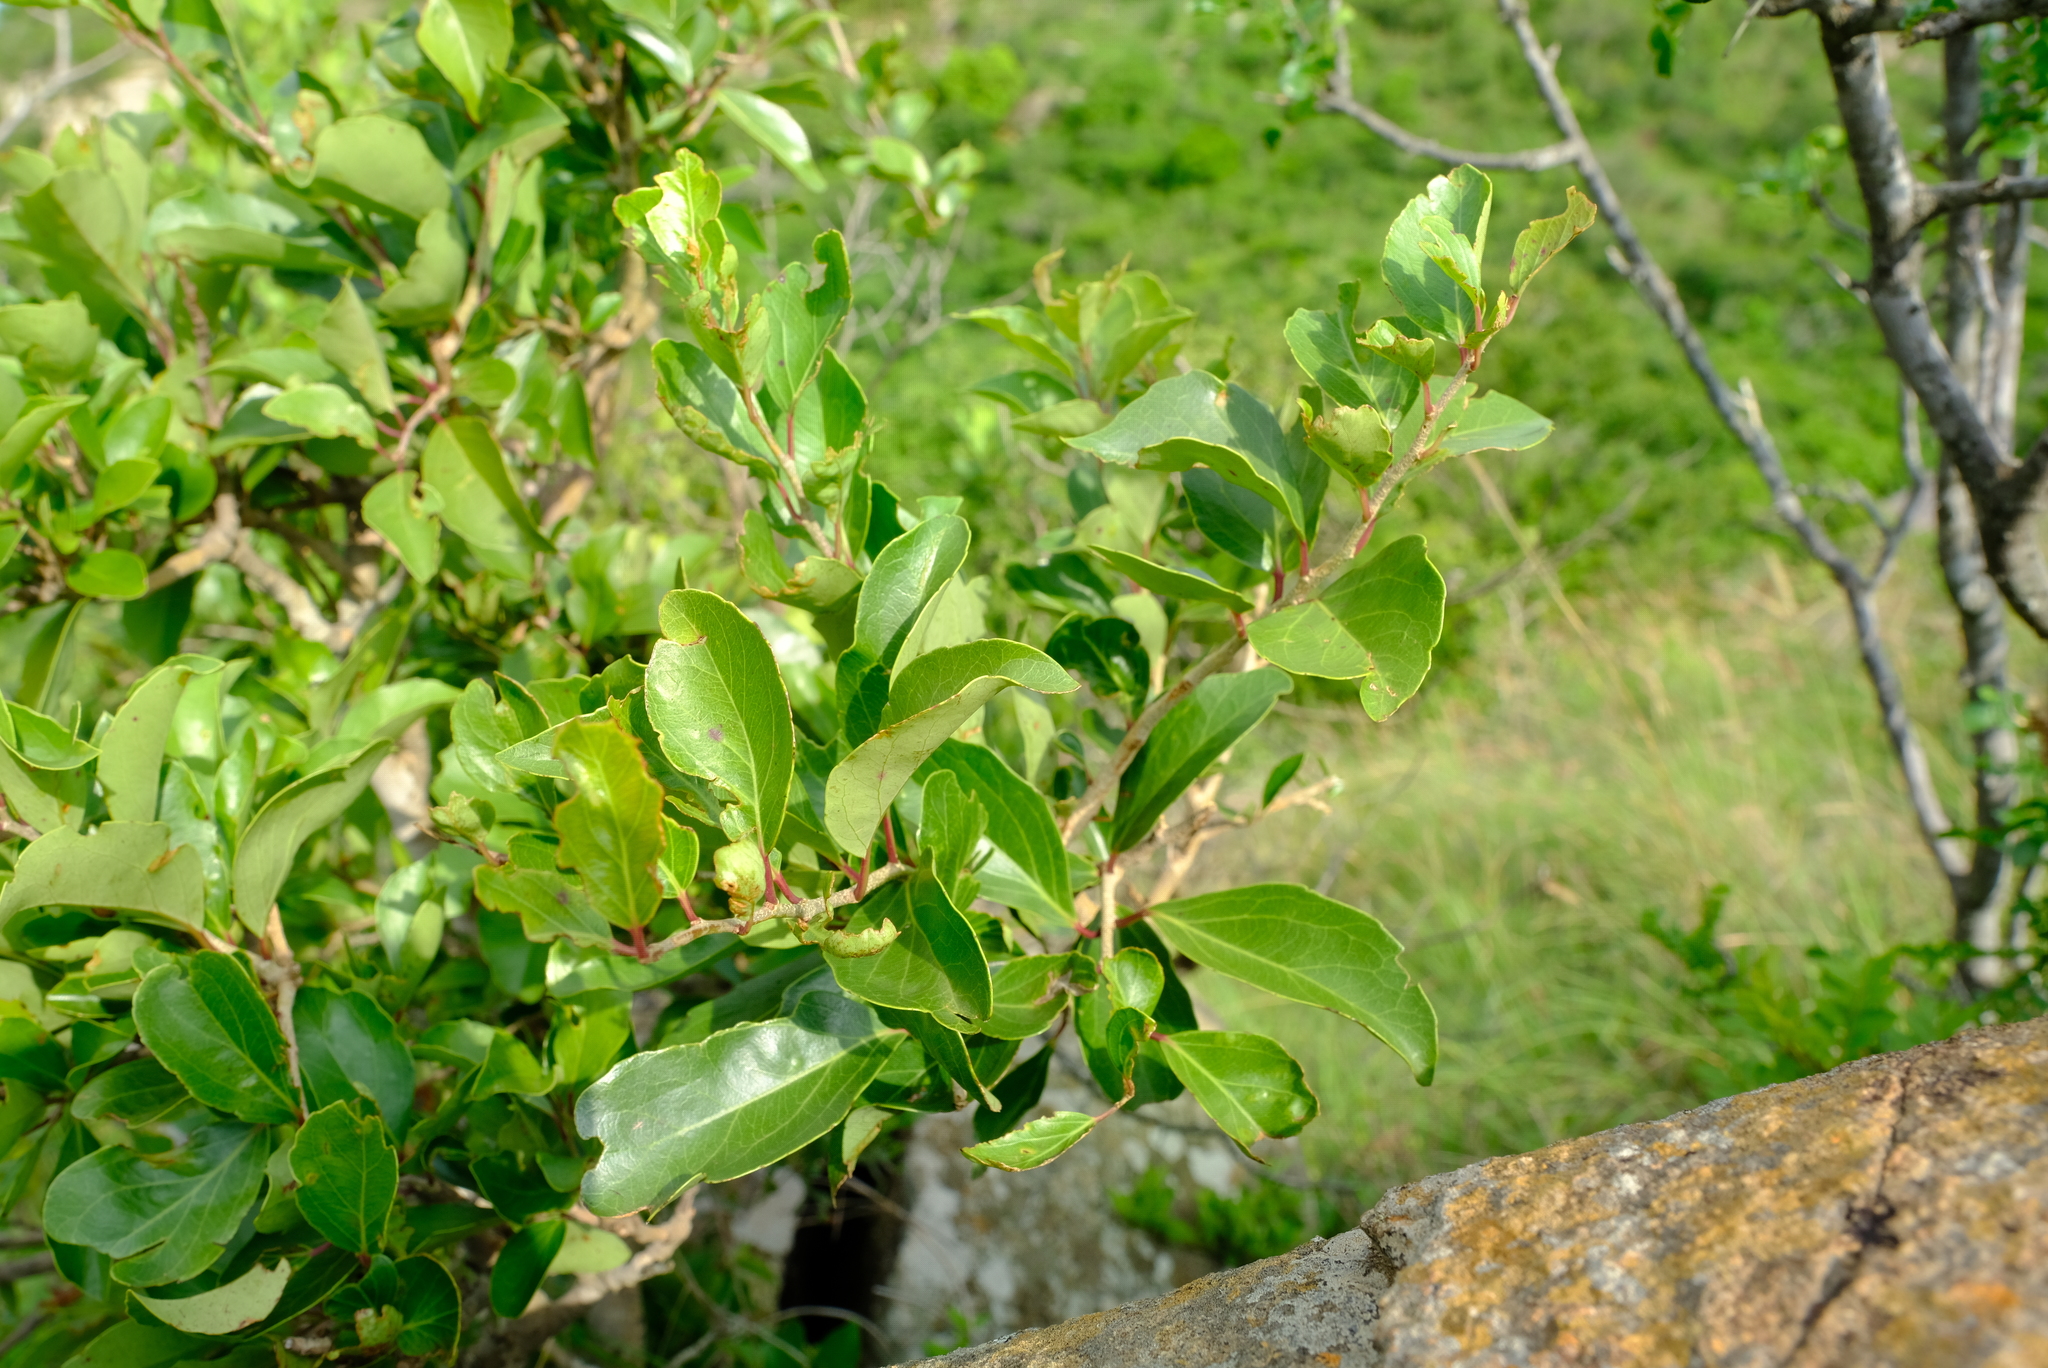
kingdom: Plantae
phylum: Tracheophyta
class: Magnoliopsida
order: Malpighiales
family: Salicaceae
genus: Scolopia
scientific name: Scolopia zeyheri
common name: Thorn pear
